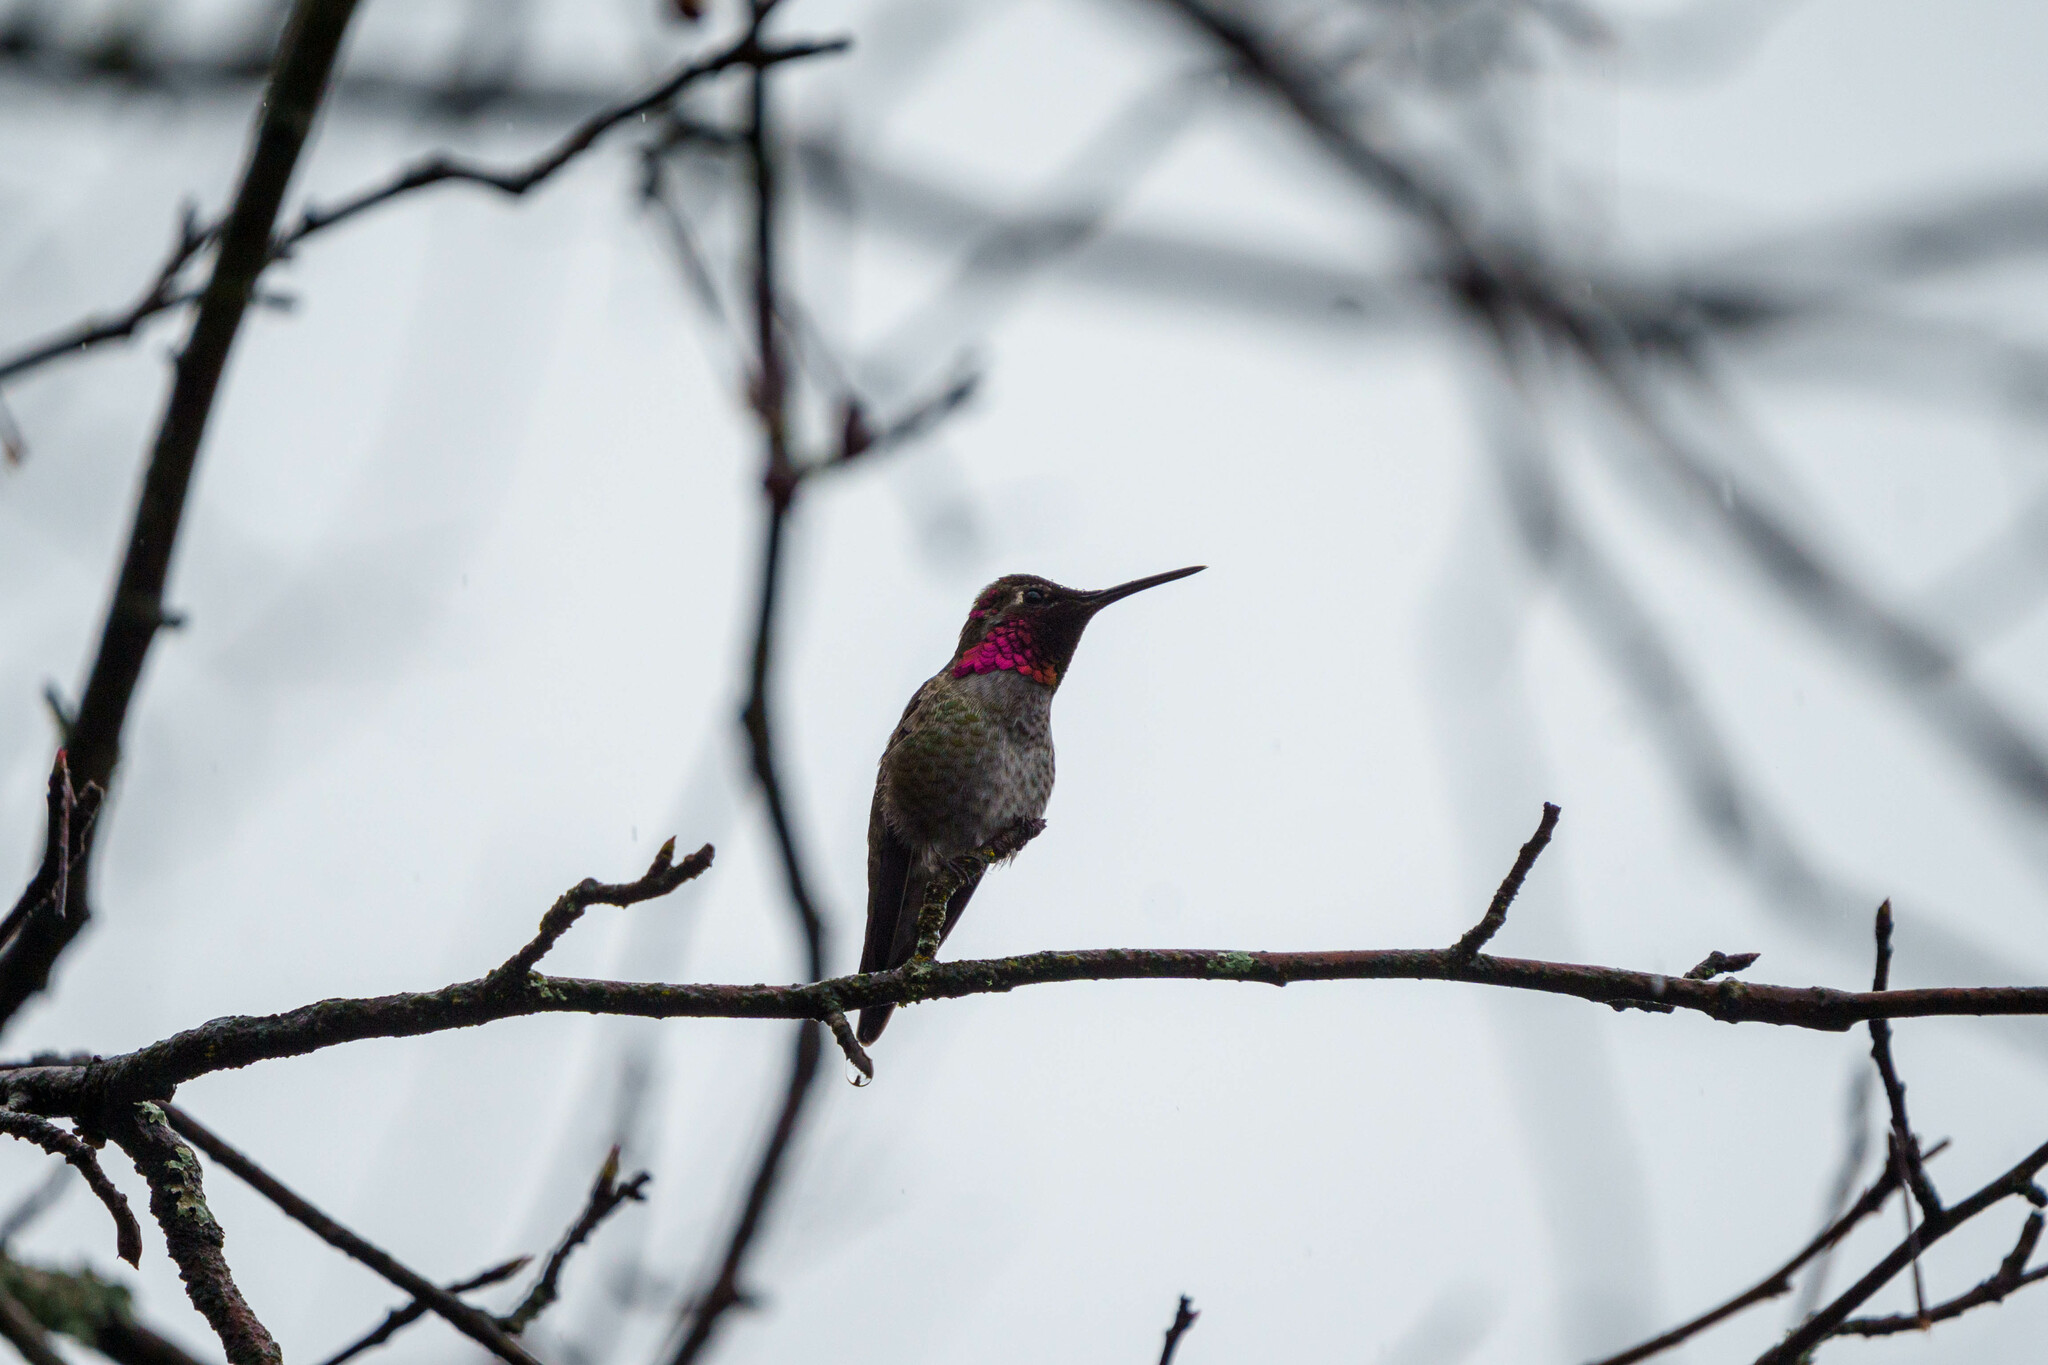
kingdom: Animalia
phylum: Chordata
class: Aves
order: Apodiformes
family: Trochilidae
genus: Calypte
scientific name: Calypte anna
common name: Anna's hummingbird
